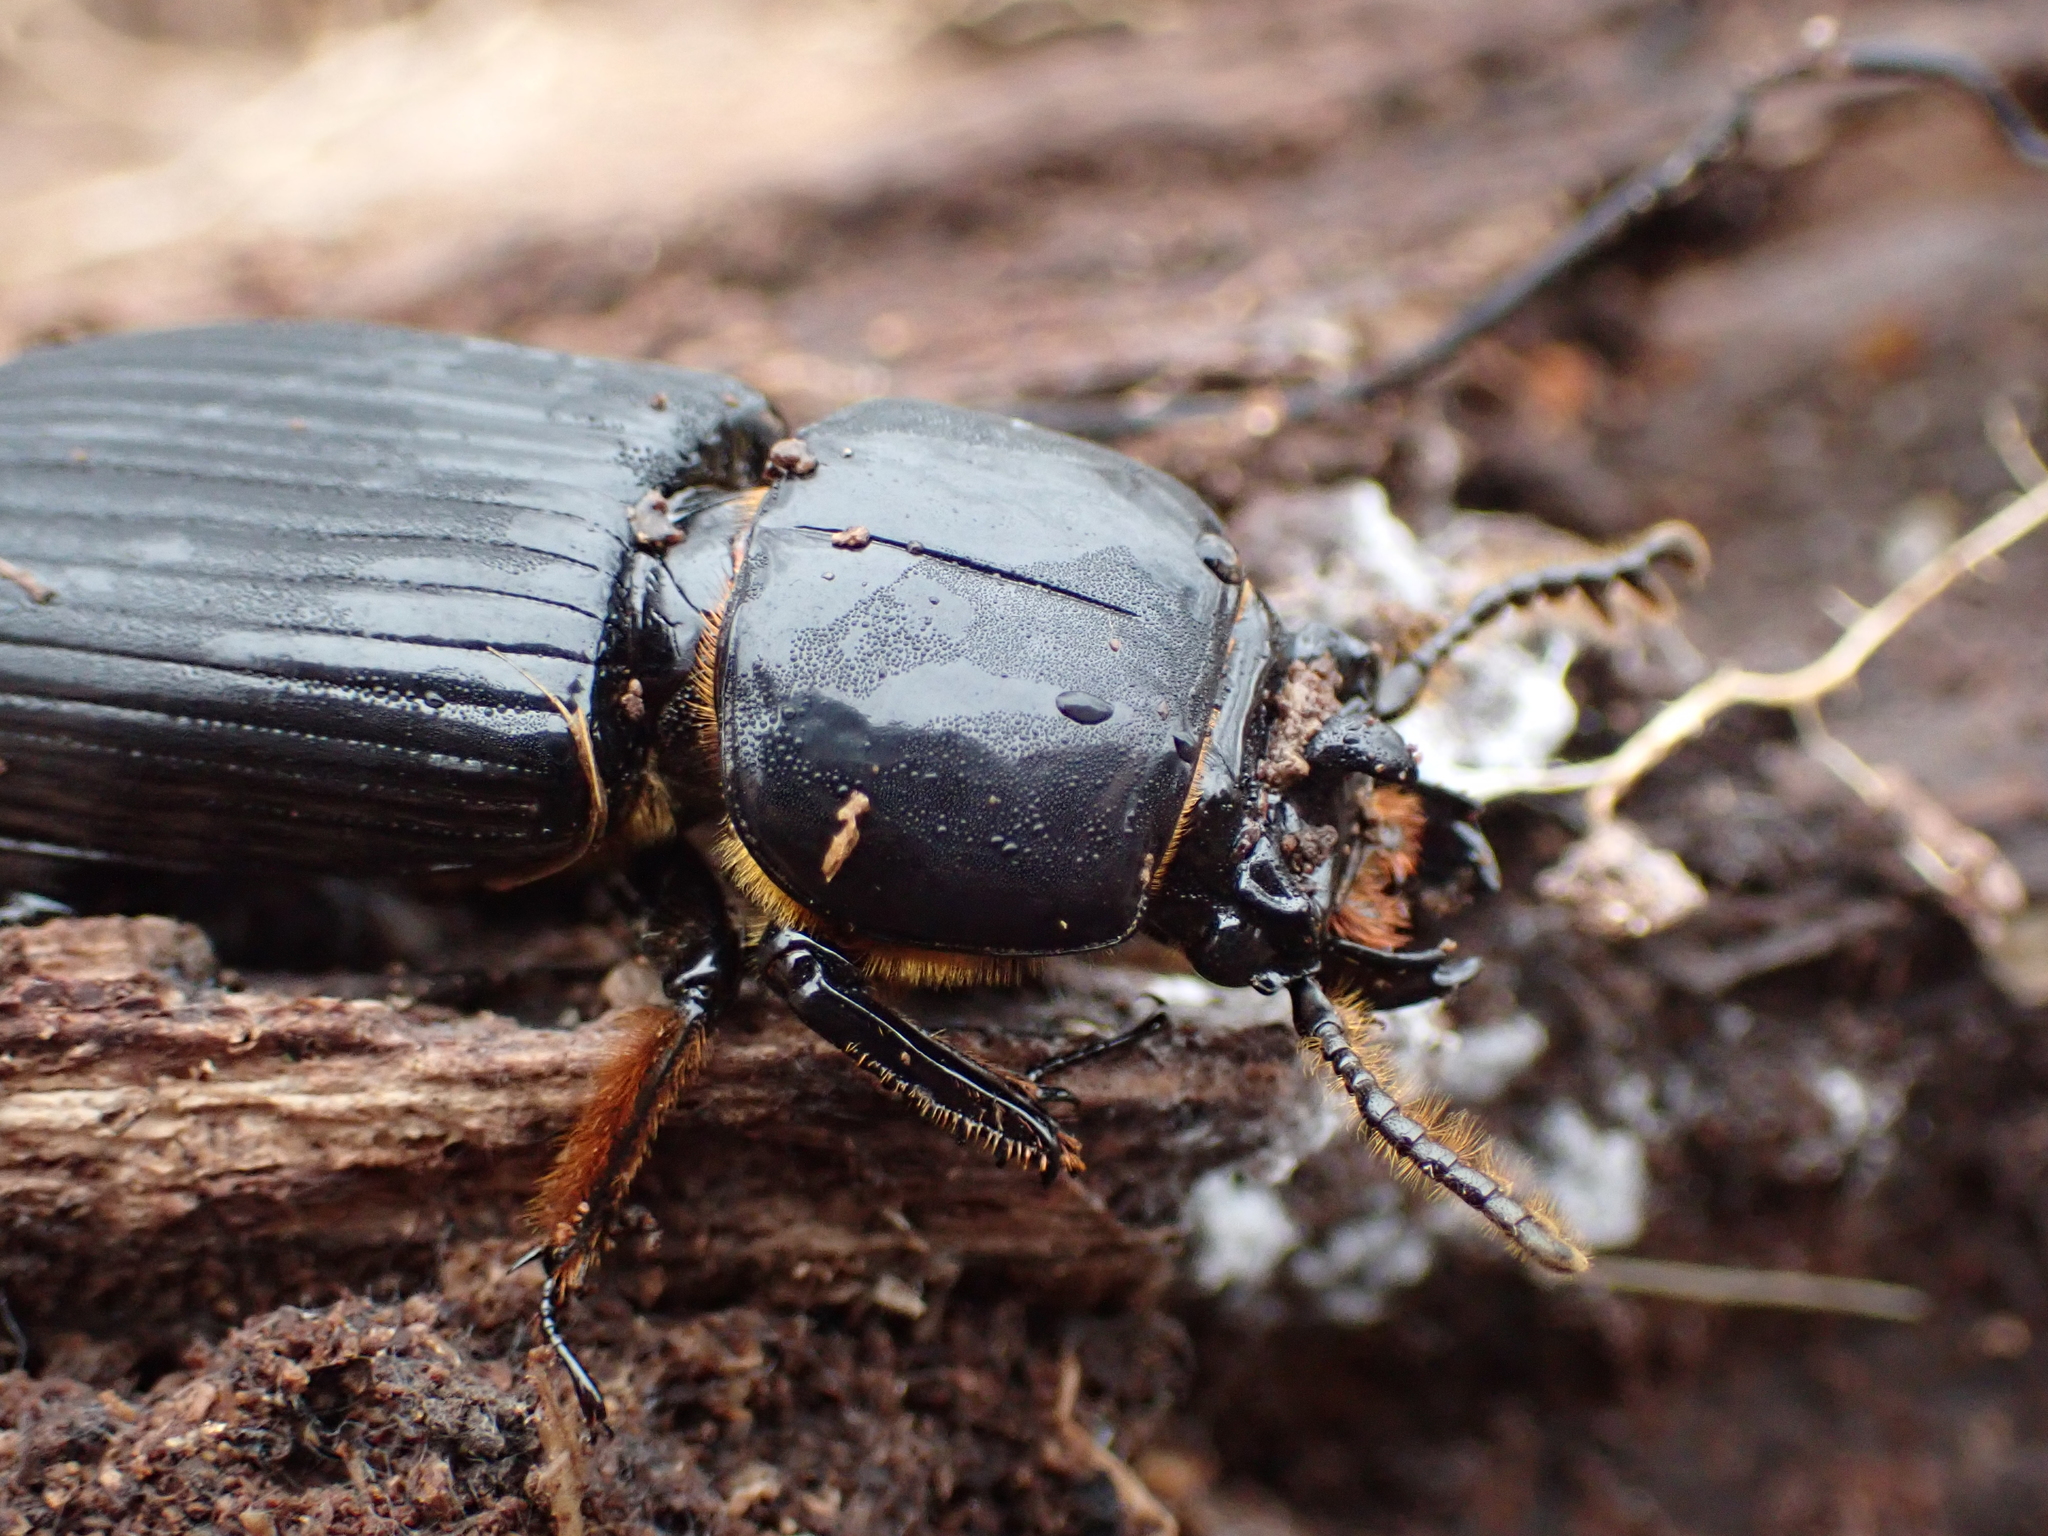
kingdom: Animalia
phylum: Arthropoda
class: Insecta
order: Coleoptera
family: Passalidae
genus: Odontotaenius
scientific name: Odontotaenius disjunctus
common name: Patent leather beetle
